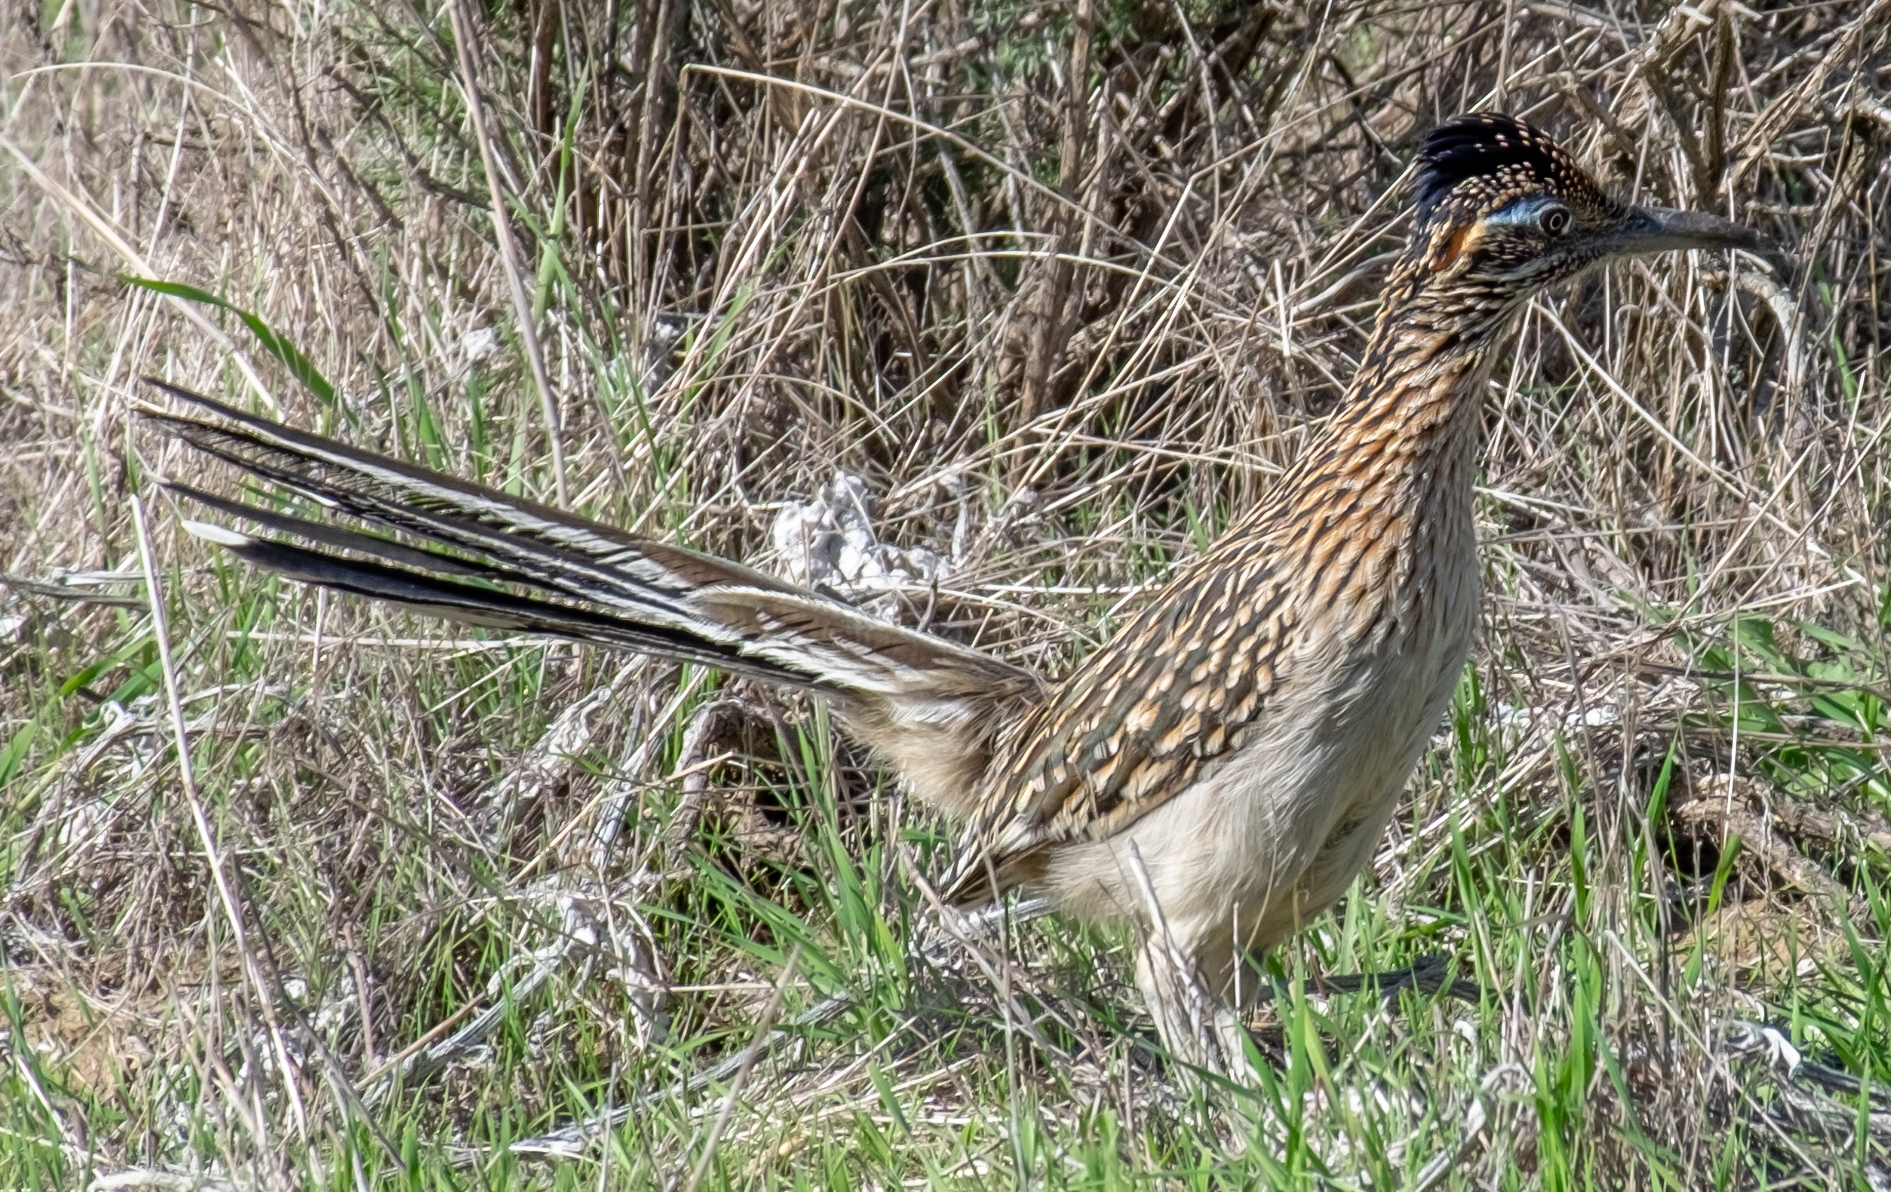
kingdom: Animalia
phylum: Chordata
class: Aves
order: Cuculiformes
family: Cuculidae
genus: Geococcyx
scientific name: Geococcyx californianus
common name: Greater roadrunner
